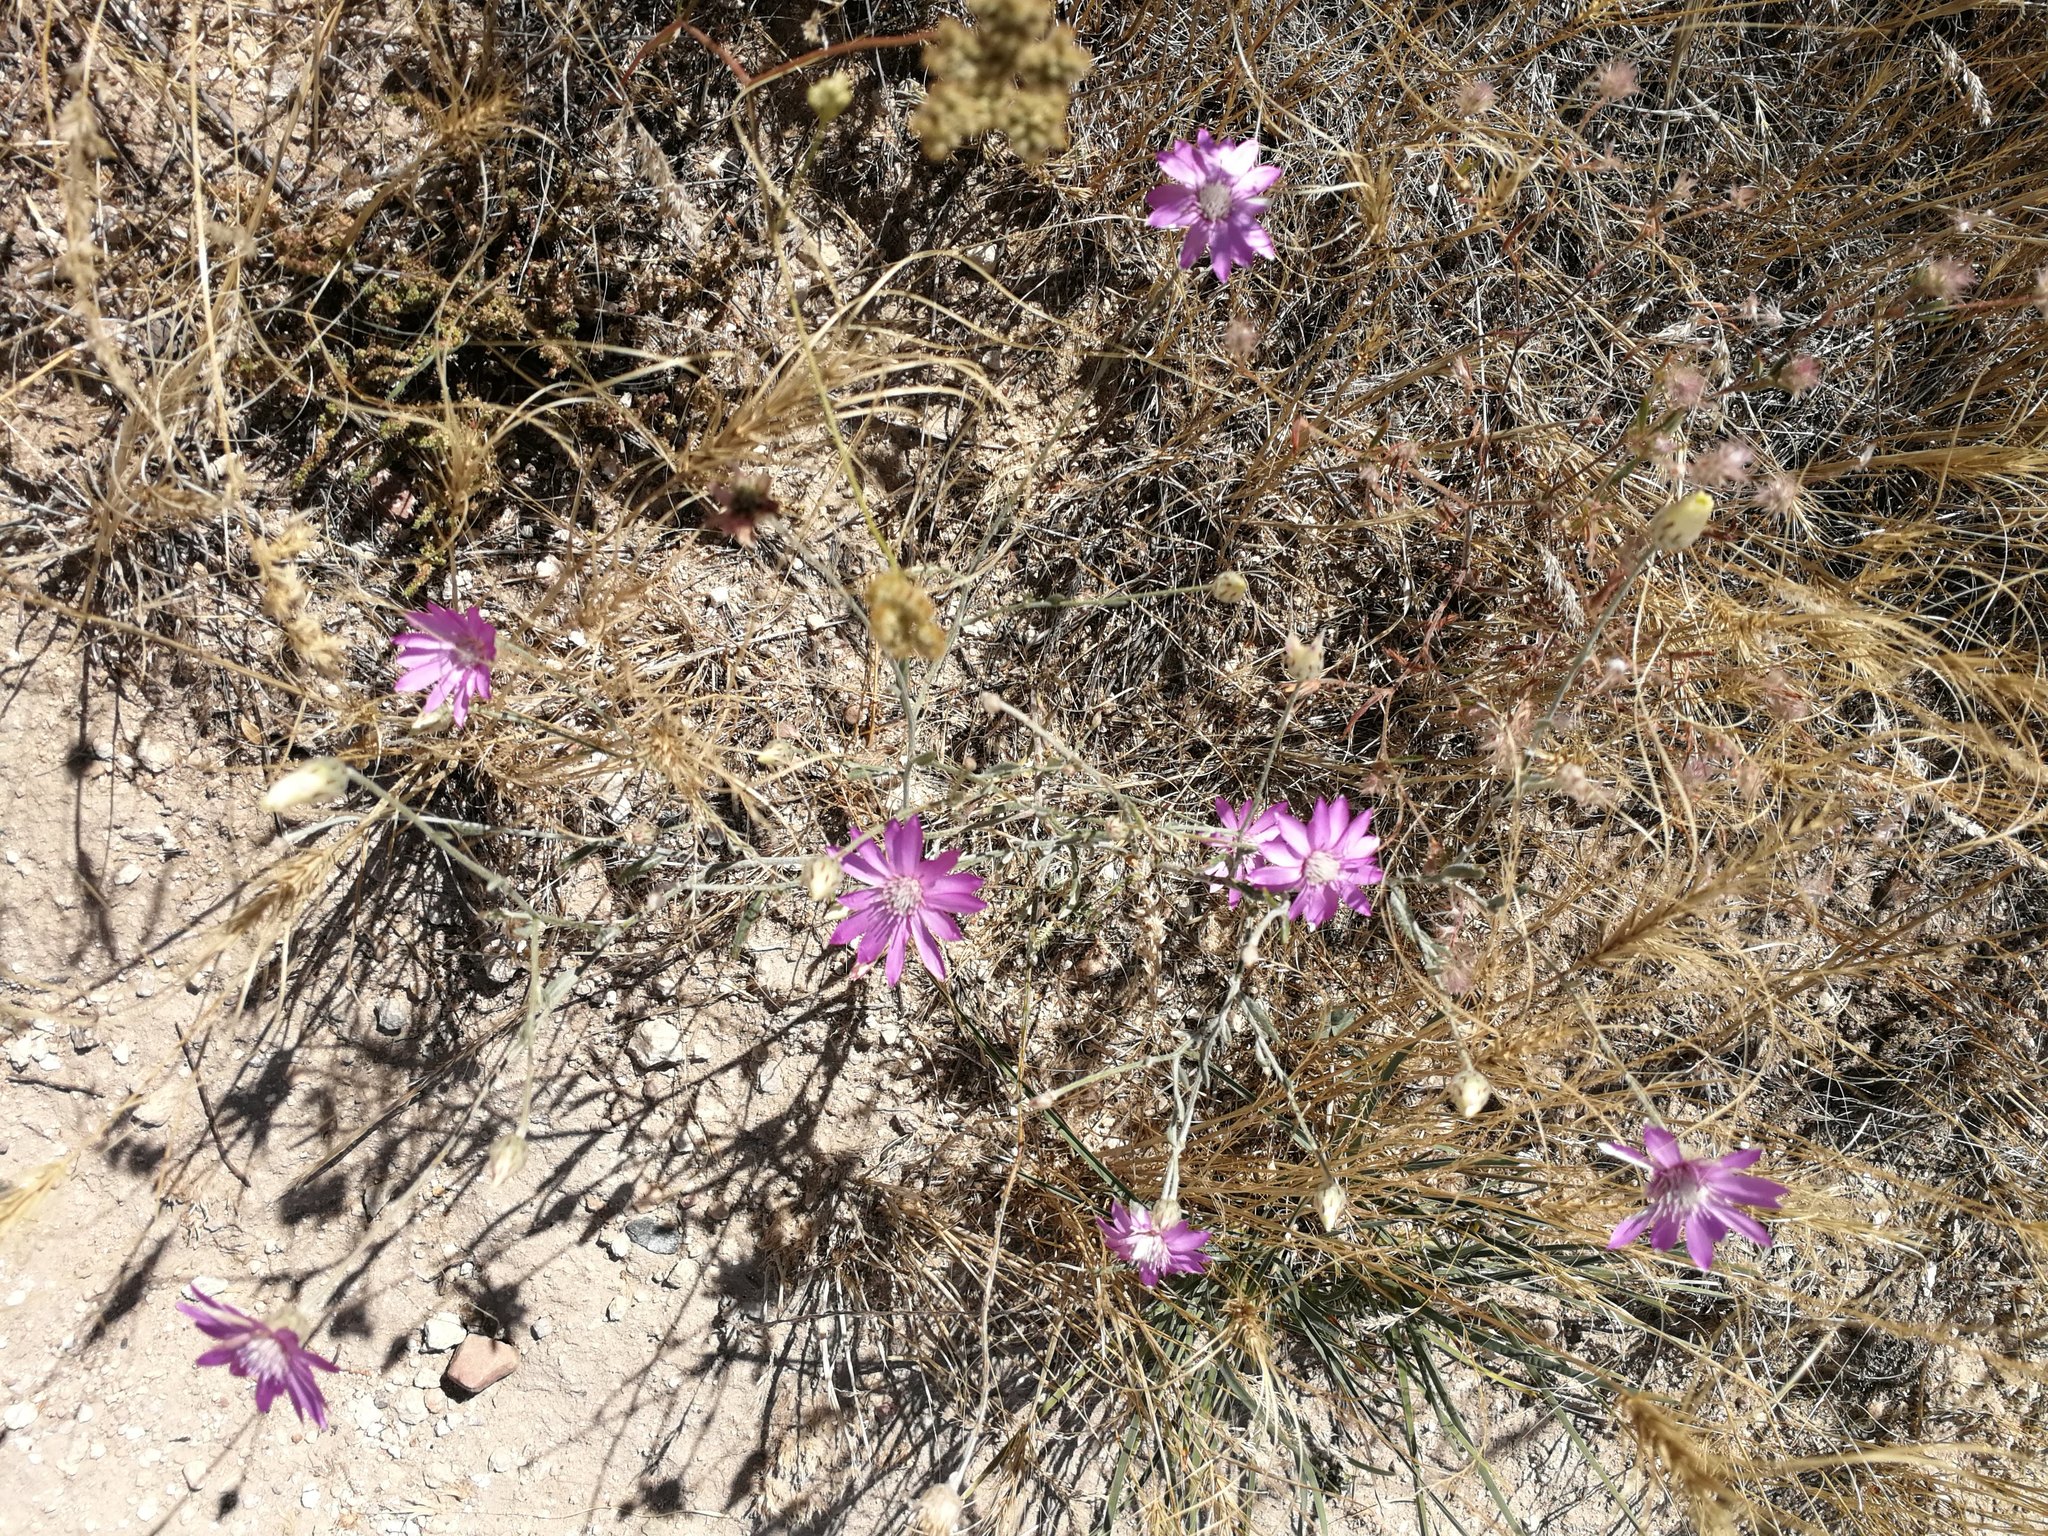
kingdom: Plantae
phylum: Tracheophyta
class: Magnoliopsida
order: Asterales
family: Asteraceae
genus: Xeranthemum
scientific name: Xeranthemum annuum
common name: Immortelle
